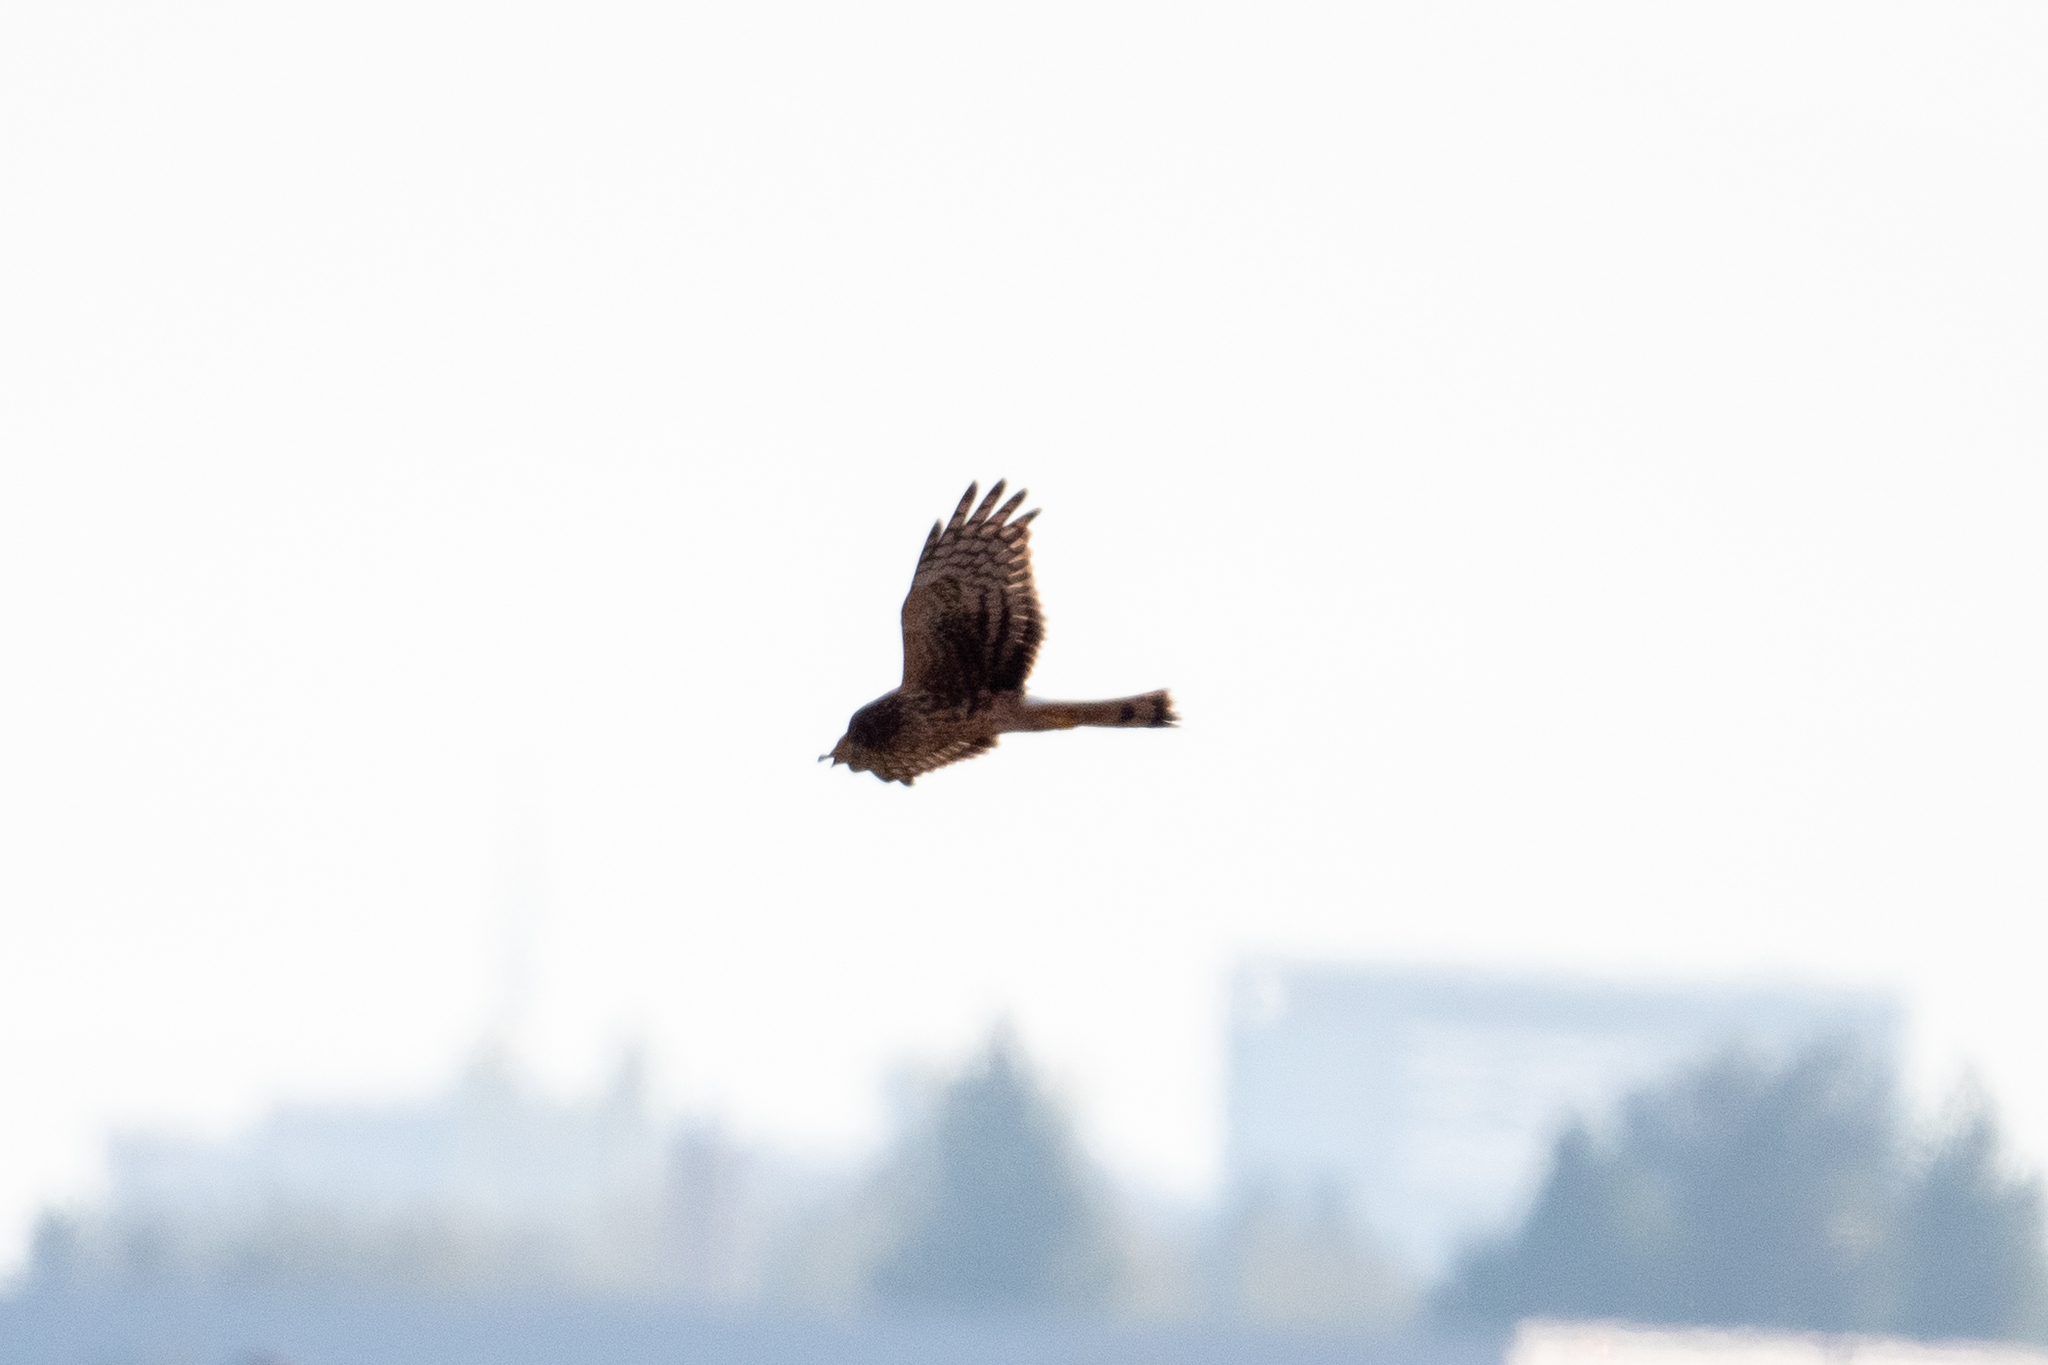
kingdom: Animalia
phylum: Chordata
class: Aves
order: Accipitriformes
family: Accipitridae
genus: Circus
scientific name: Circus cyaneus
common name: Hen harrier
